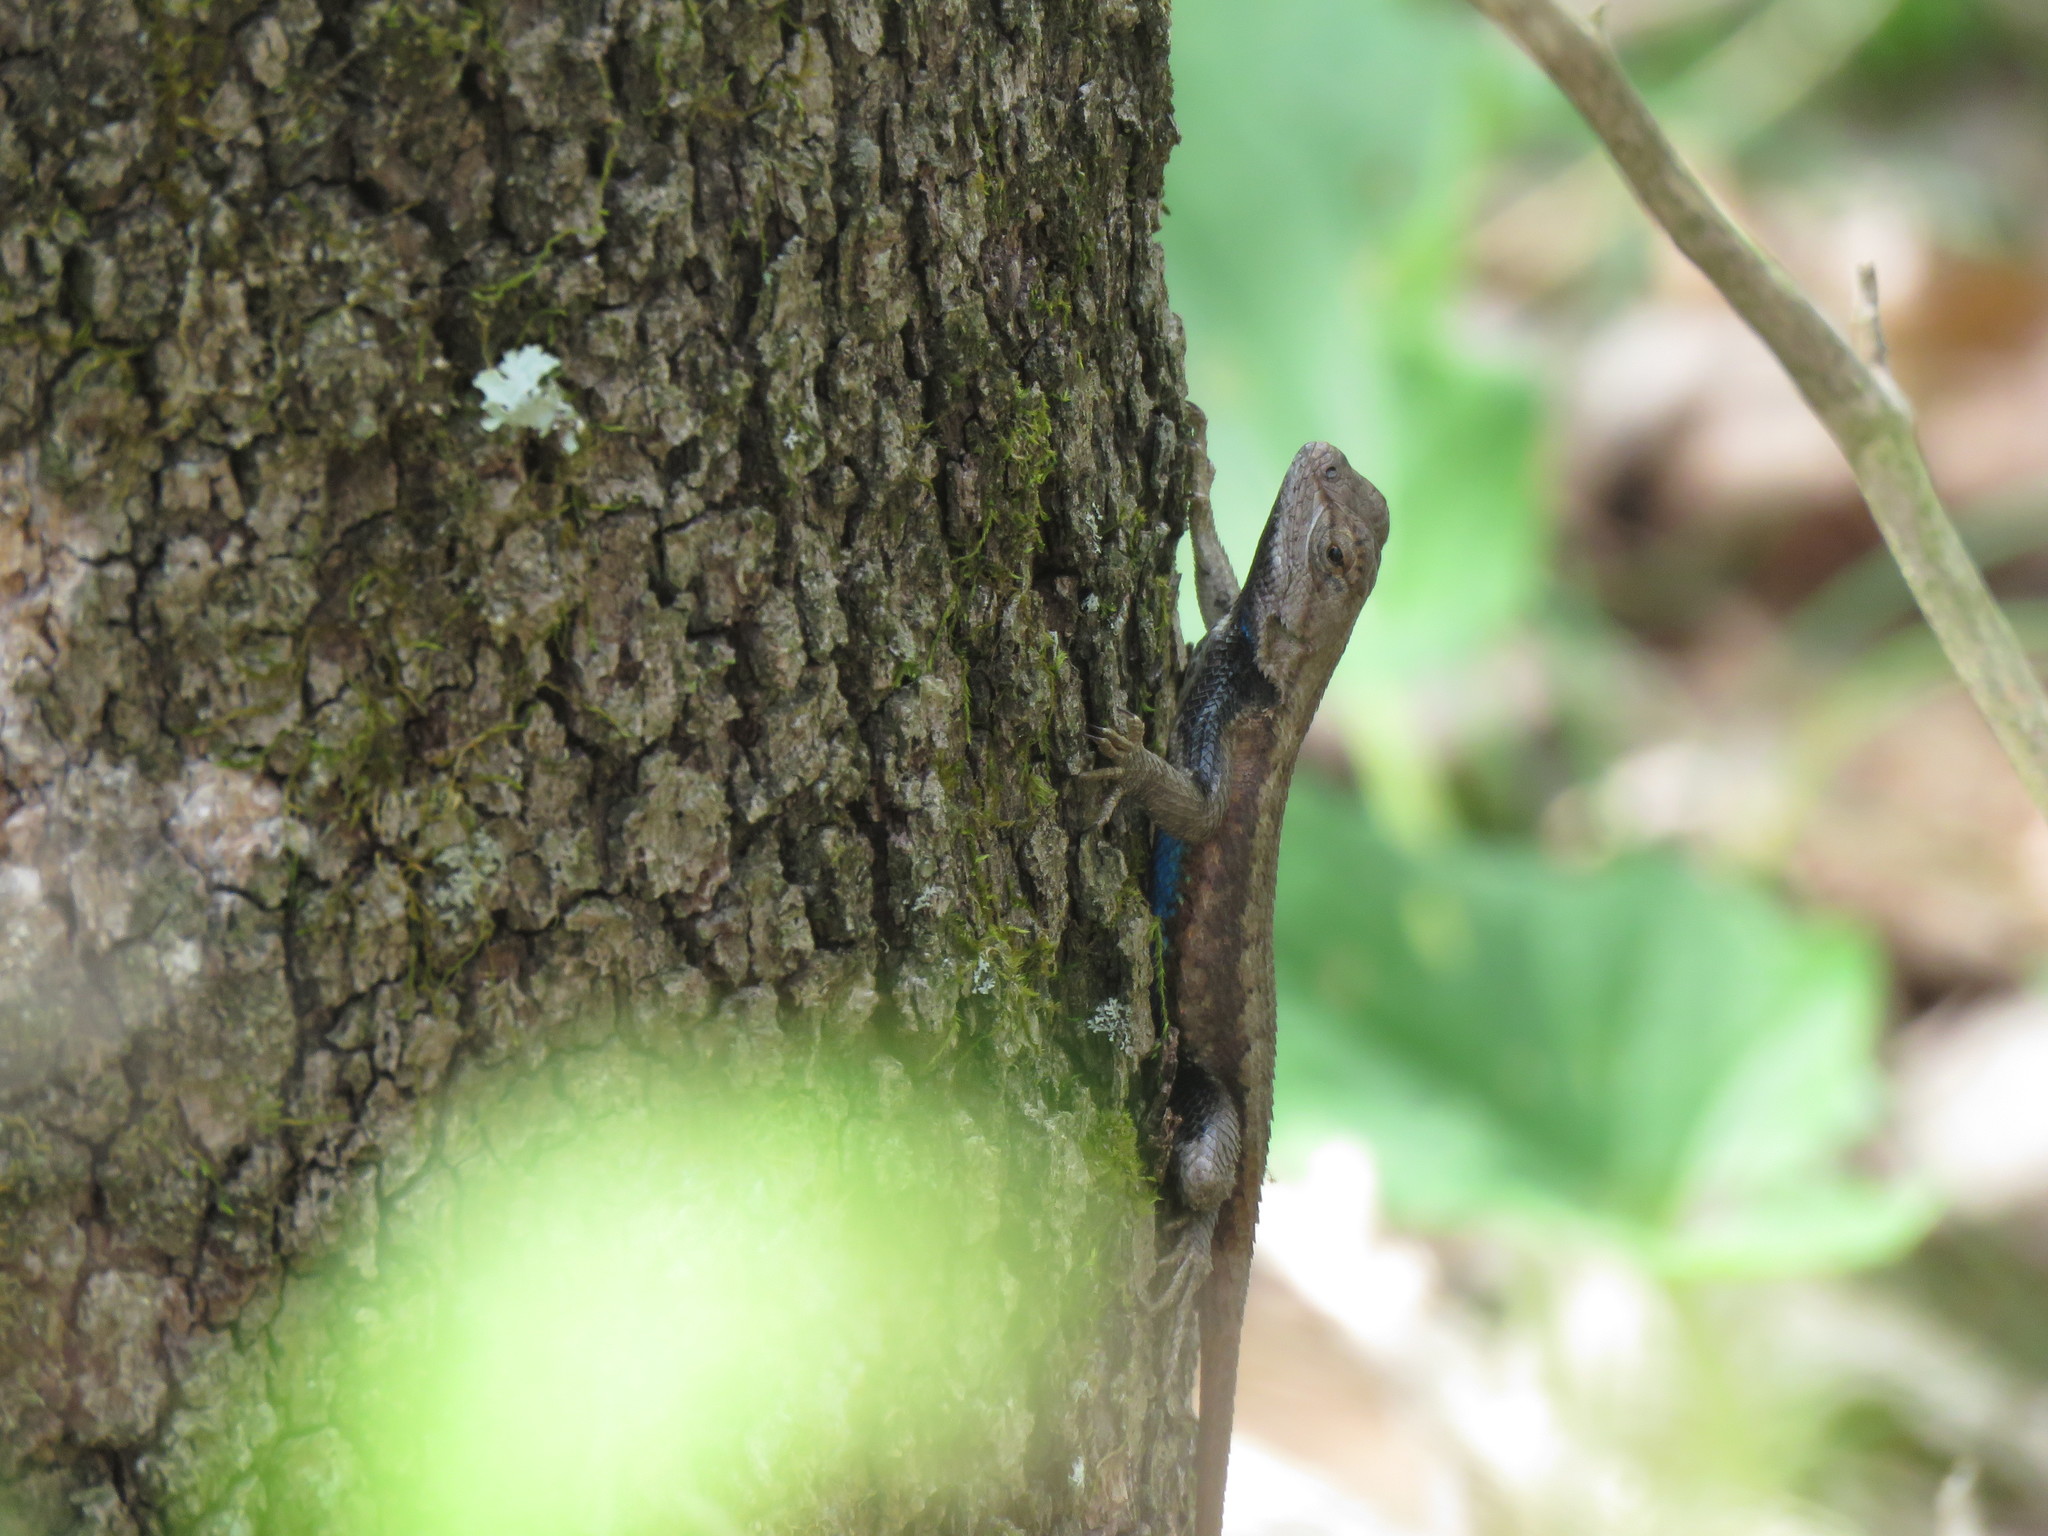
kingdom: Animalia
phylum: Chordata
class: Squamata
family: Phrynosomatidae
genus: Sceloporus
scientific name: Sceloporus consobrinus
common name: Southern prairie lizard
